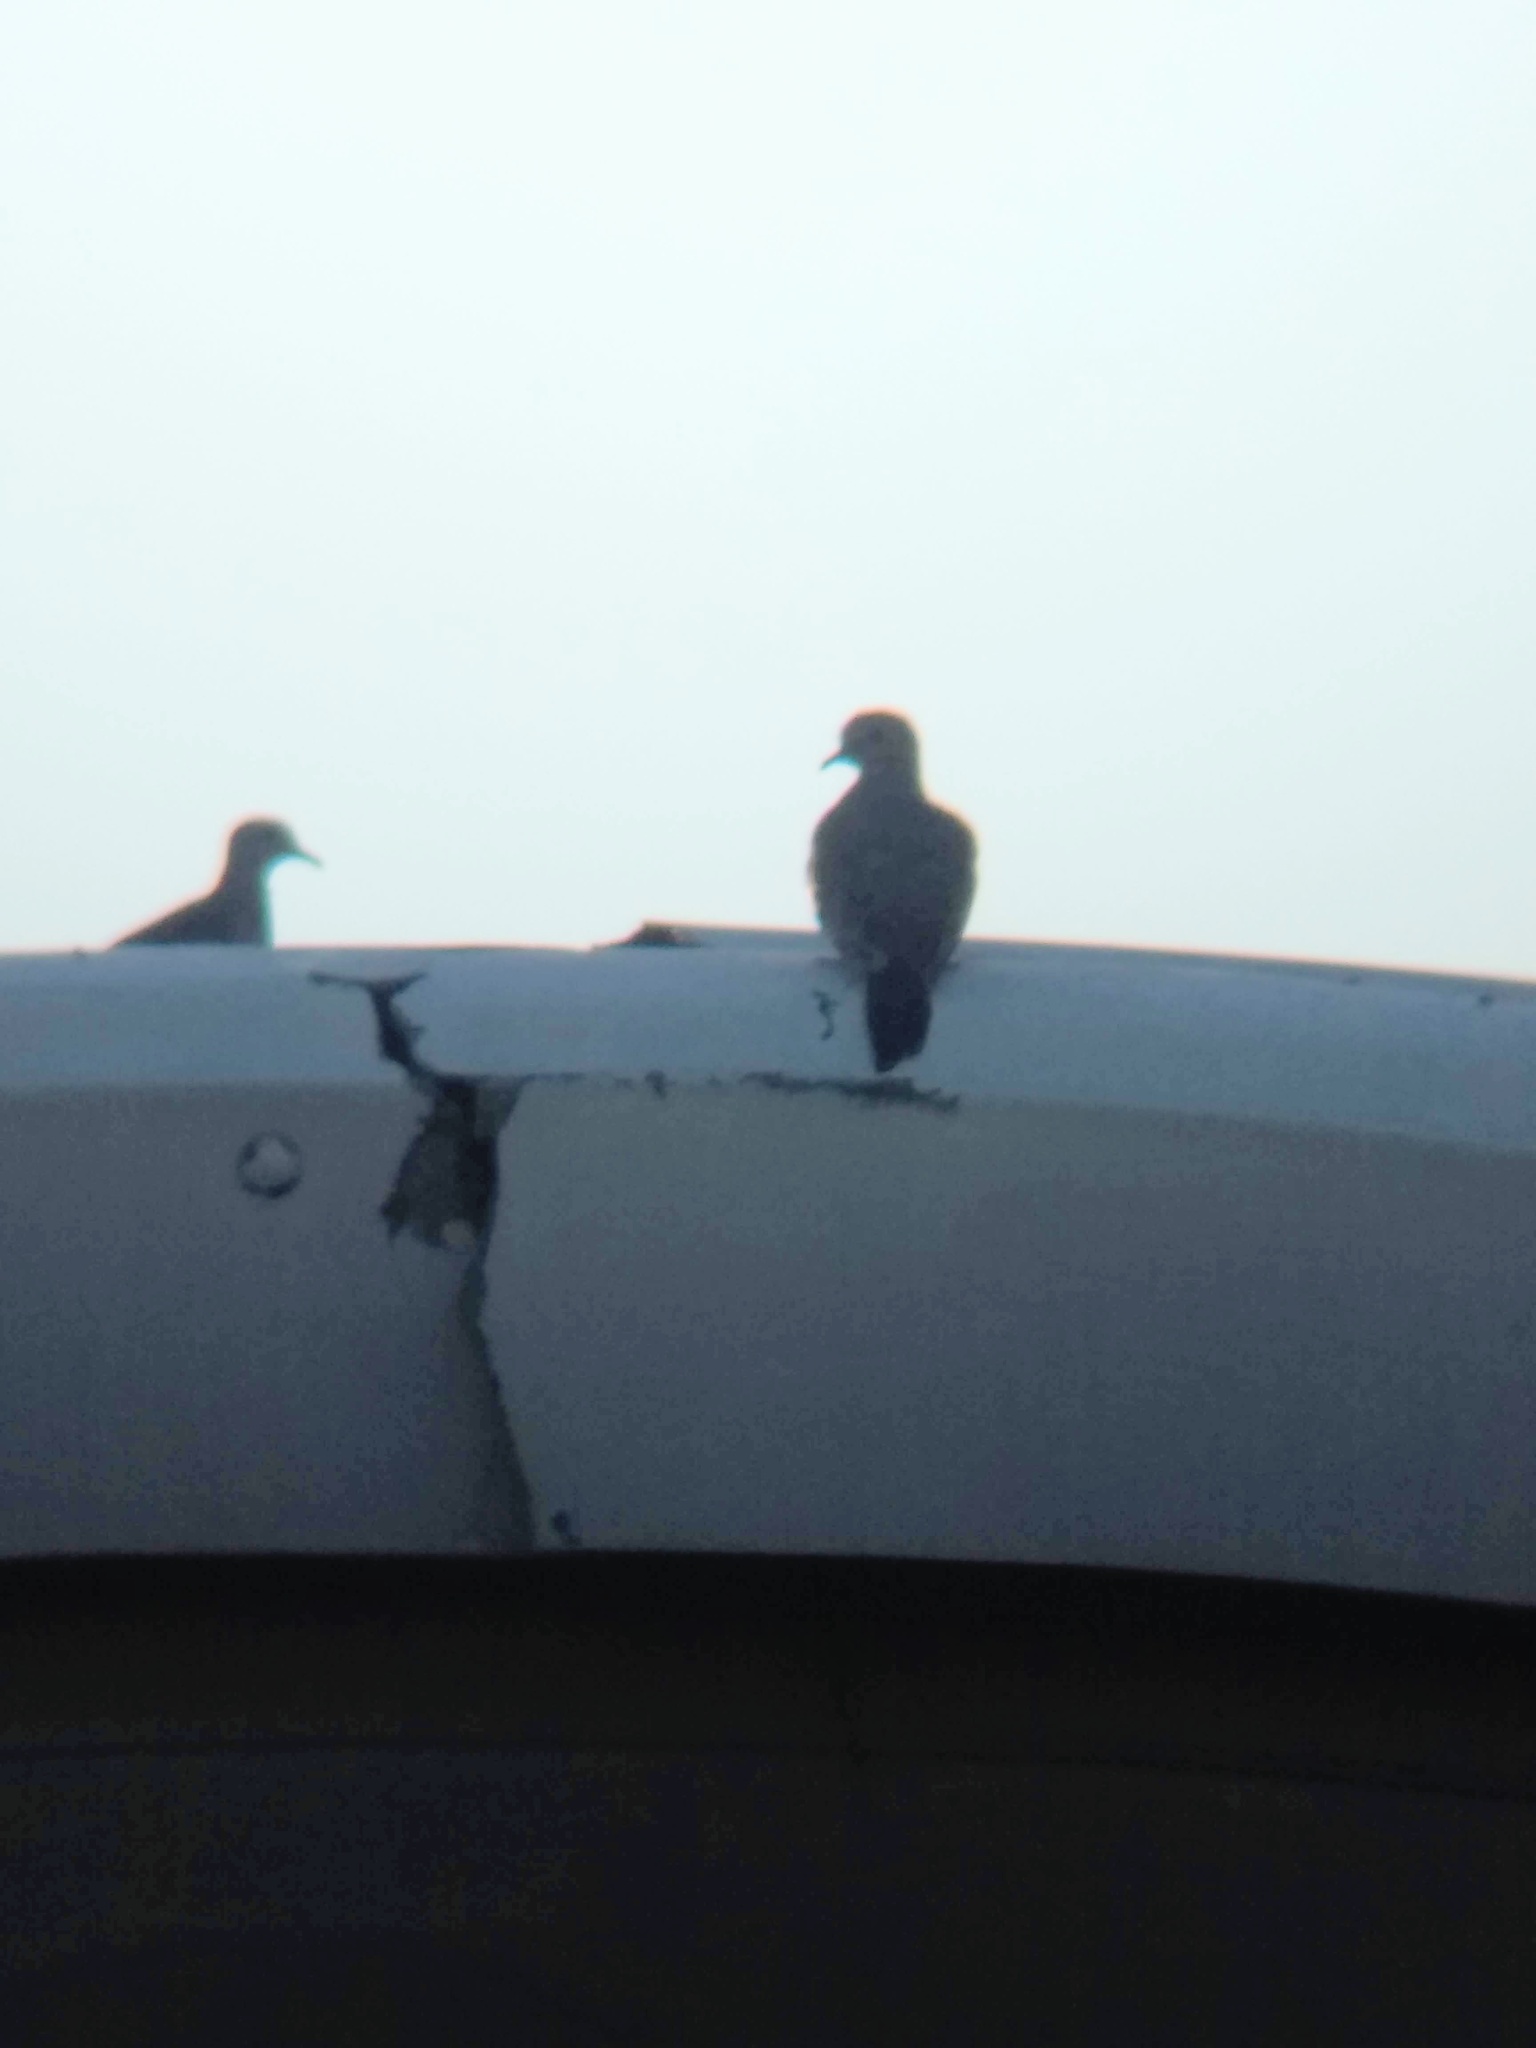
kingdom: Animalia
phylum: Chordata
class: Aves
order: Columbiformes
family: Columbidae
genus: Zenaida
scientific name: Zenaida macroura
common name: Mourning dove
